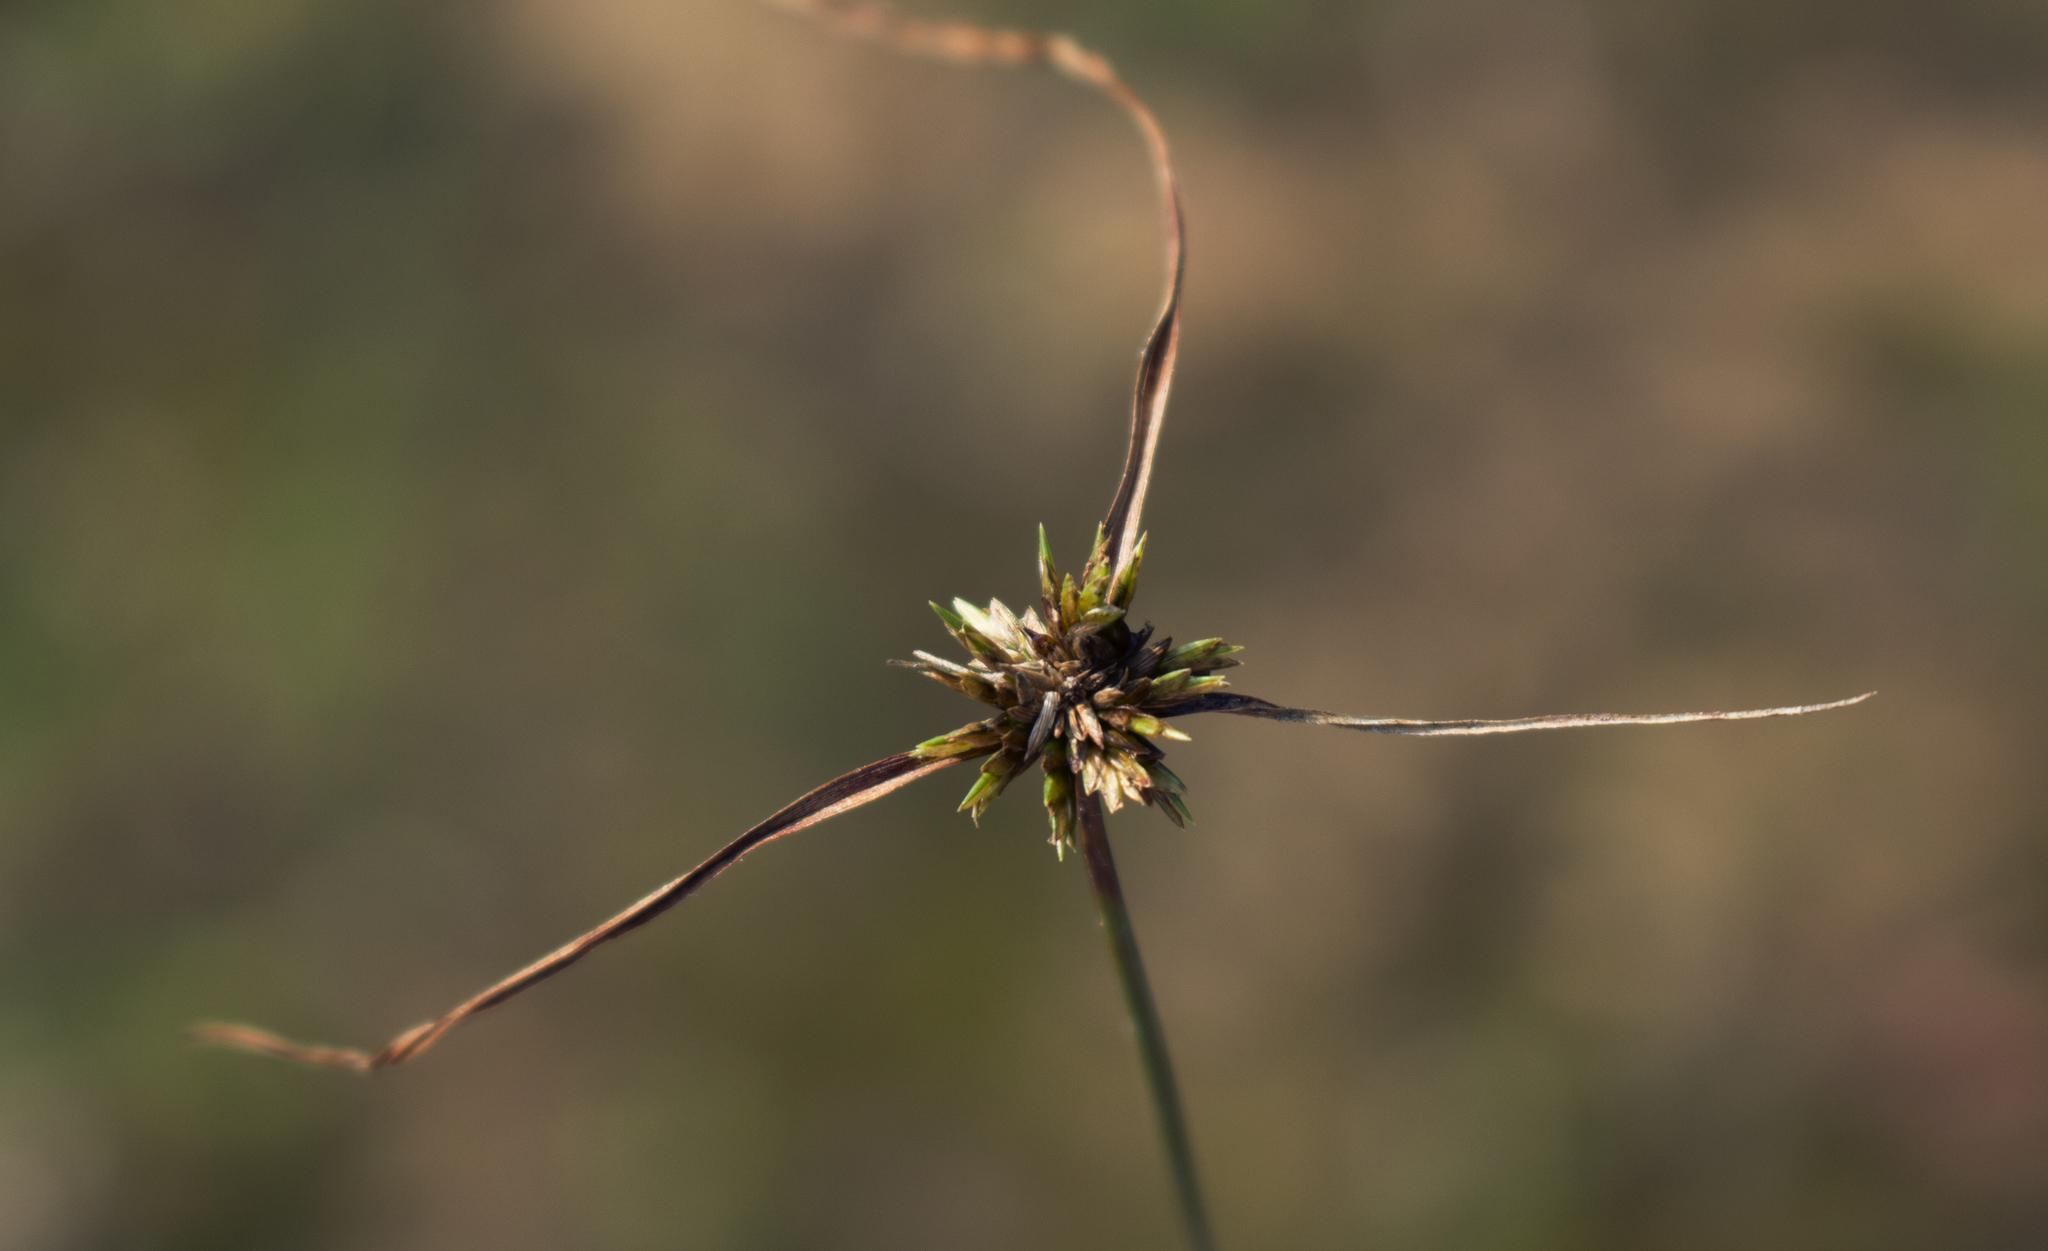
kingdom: Plantae
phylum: Tracheophyta
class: Liliopsida
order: Poales
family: Cyperaceae
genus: Cyperus
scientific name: Cyperus lupulinus
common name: Great plains flatsedge
